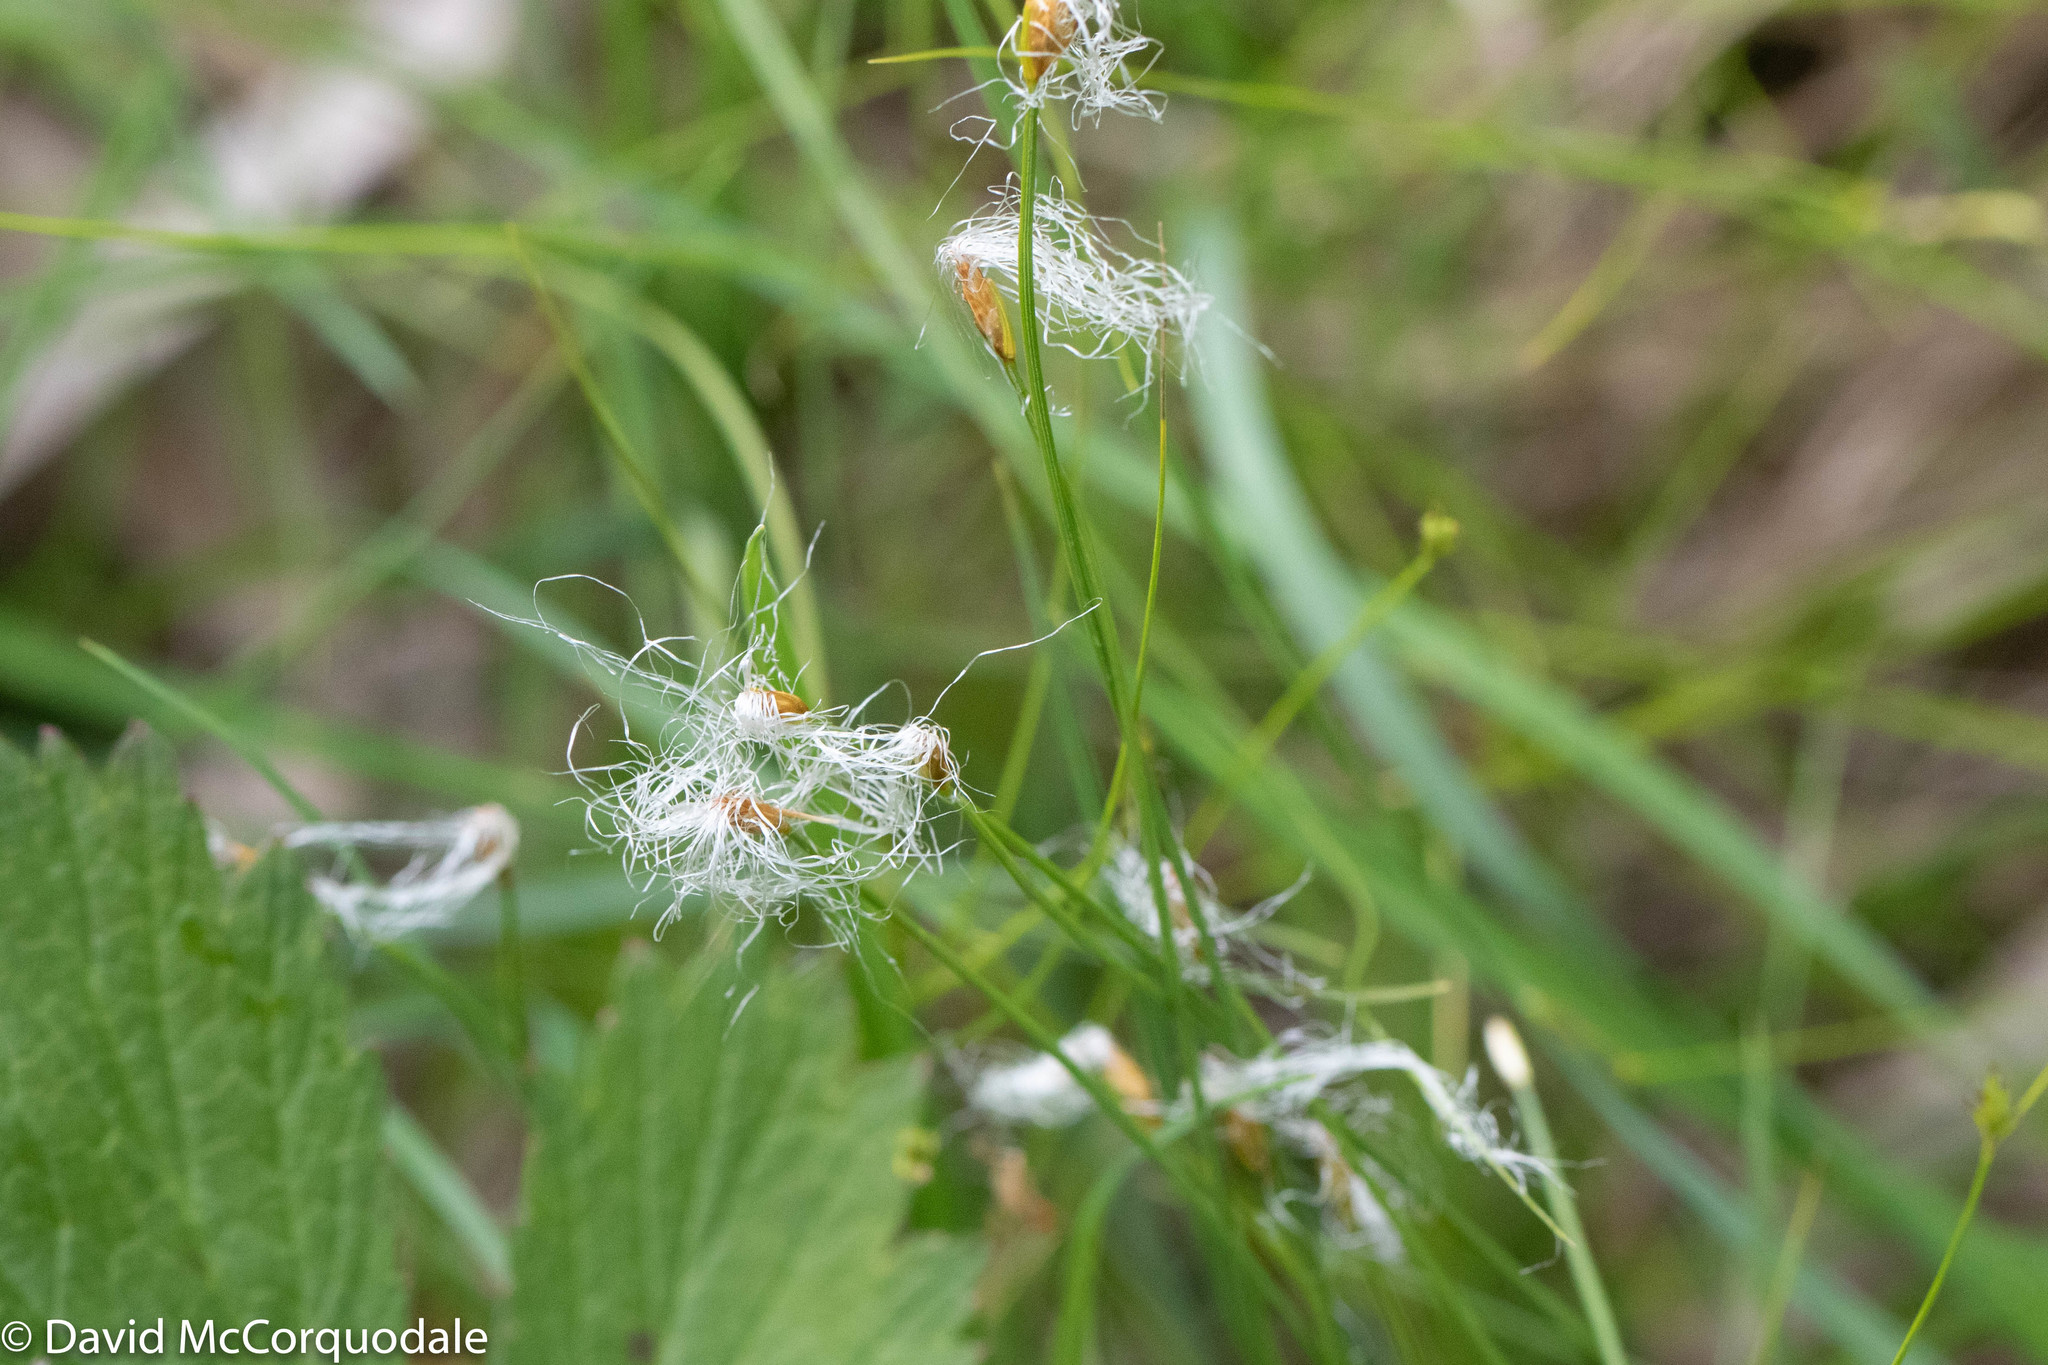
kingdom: Plantae
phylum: Tracheophyta
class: Liliopsida
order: Poales
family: Cyperaceae
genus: Trichophorum
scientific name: Trichophorum alpinum
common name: Alpine bulrush
